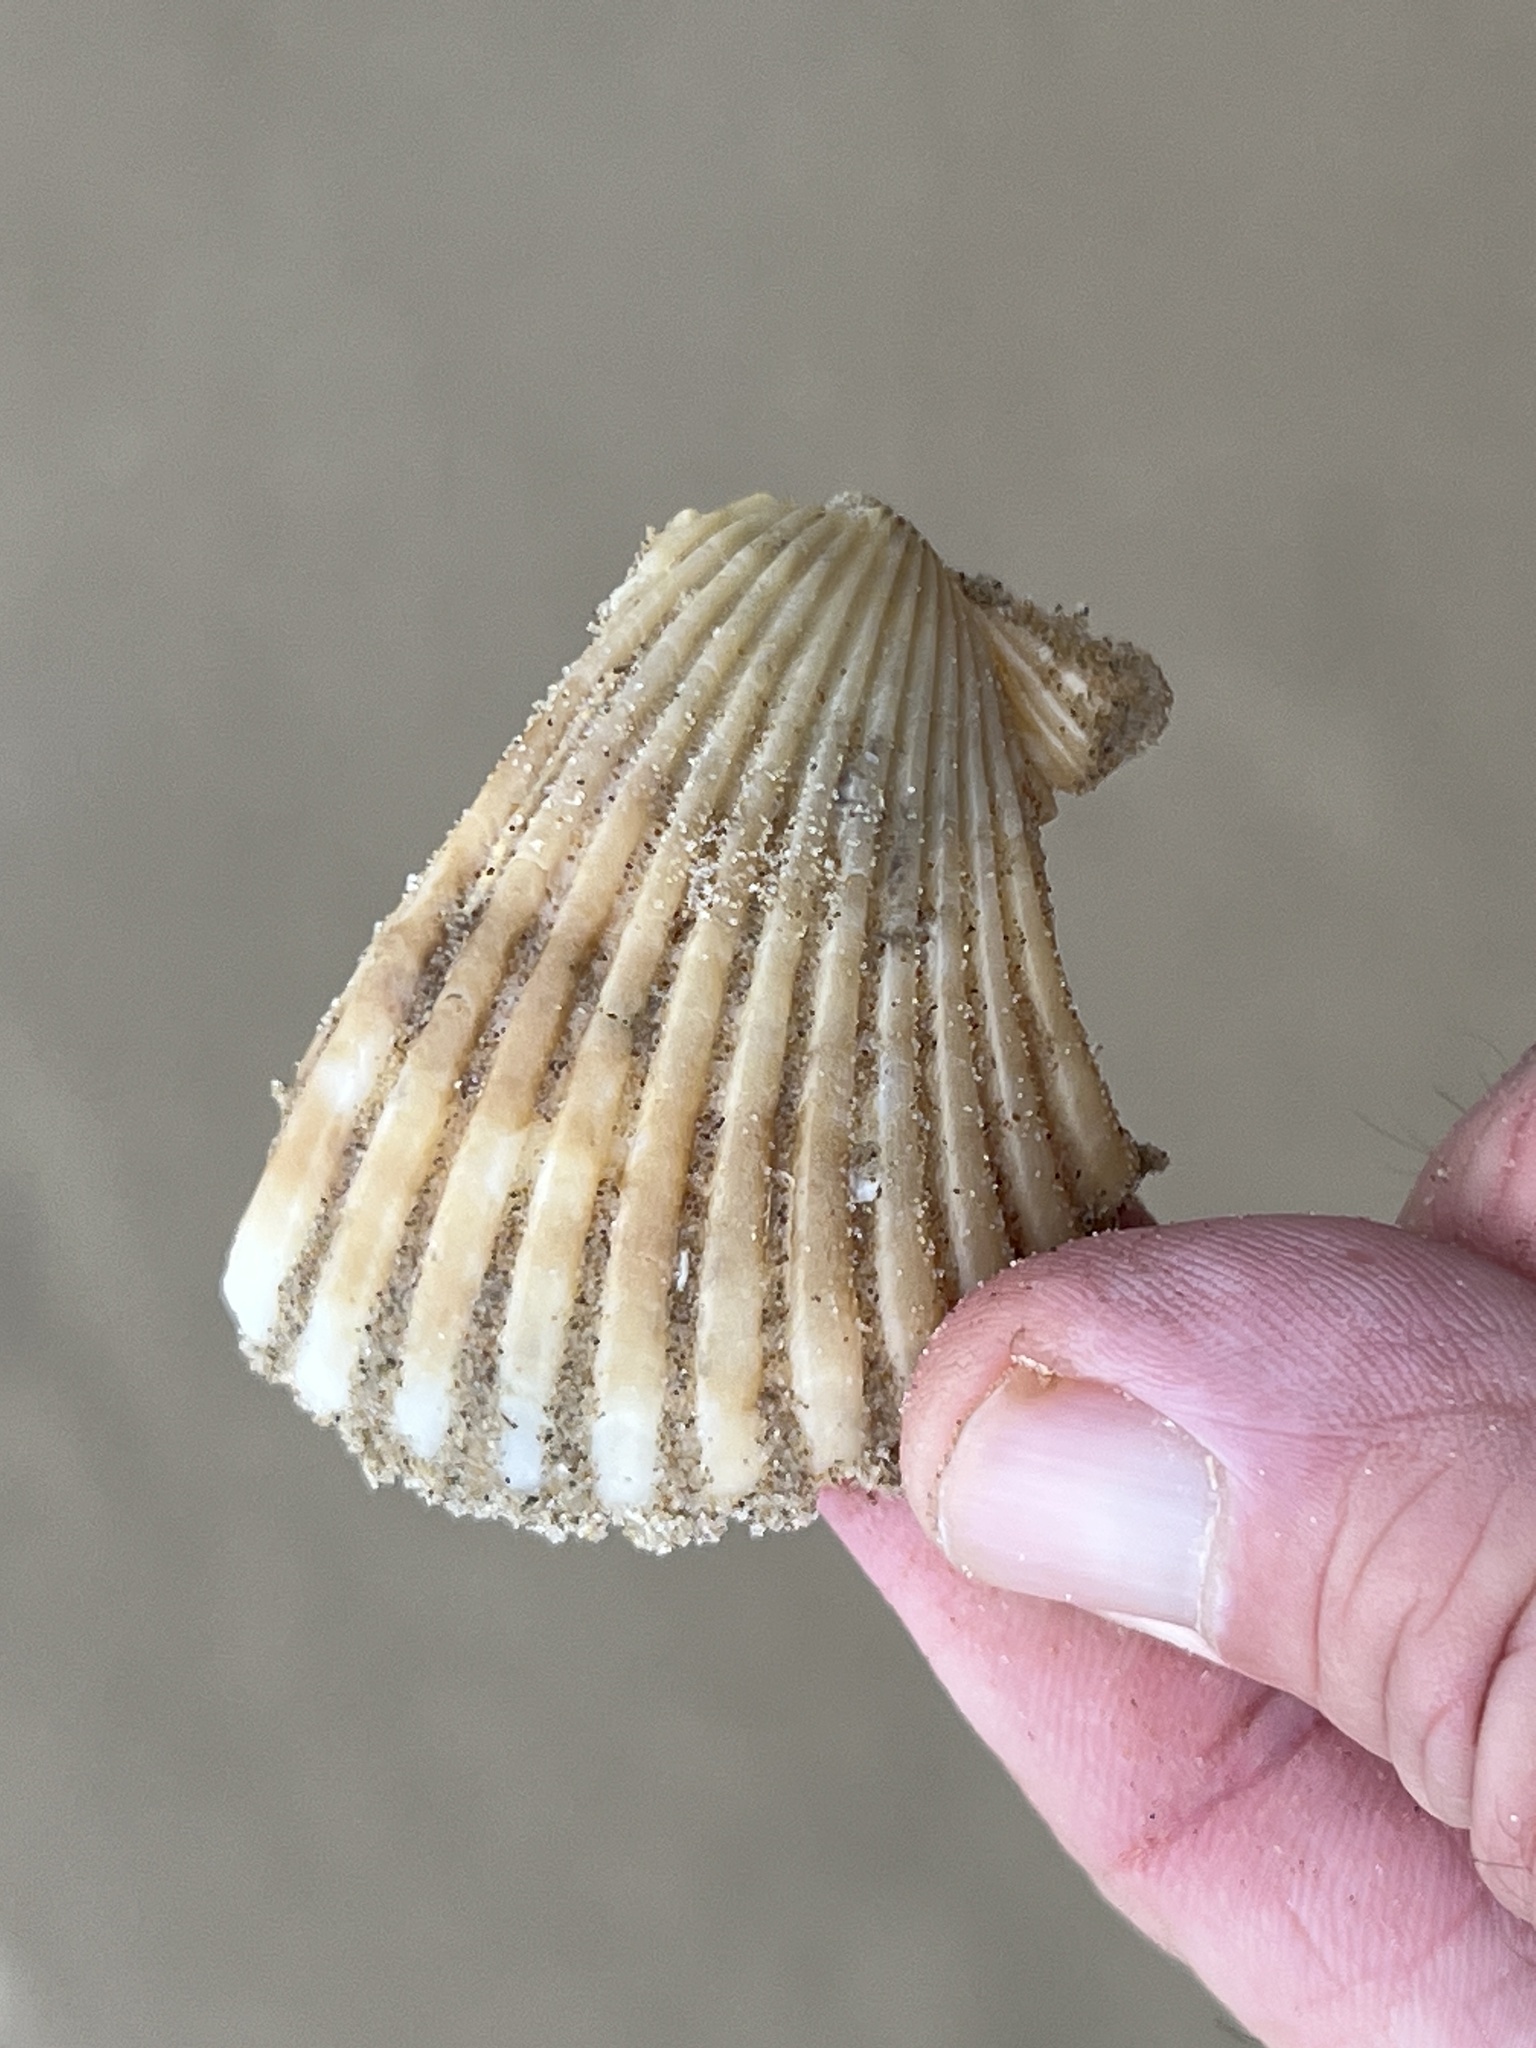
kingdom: Animalia
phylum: Mollusca
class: Bivalvia
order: Pectinida
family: Pectinidae
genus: Argopecten
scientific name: Argopecten irradians
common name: Atlantic bay scallop
